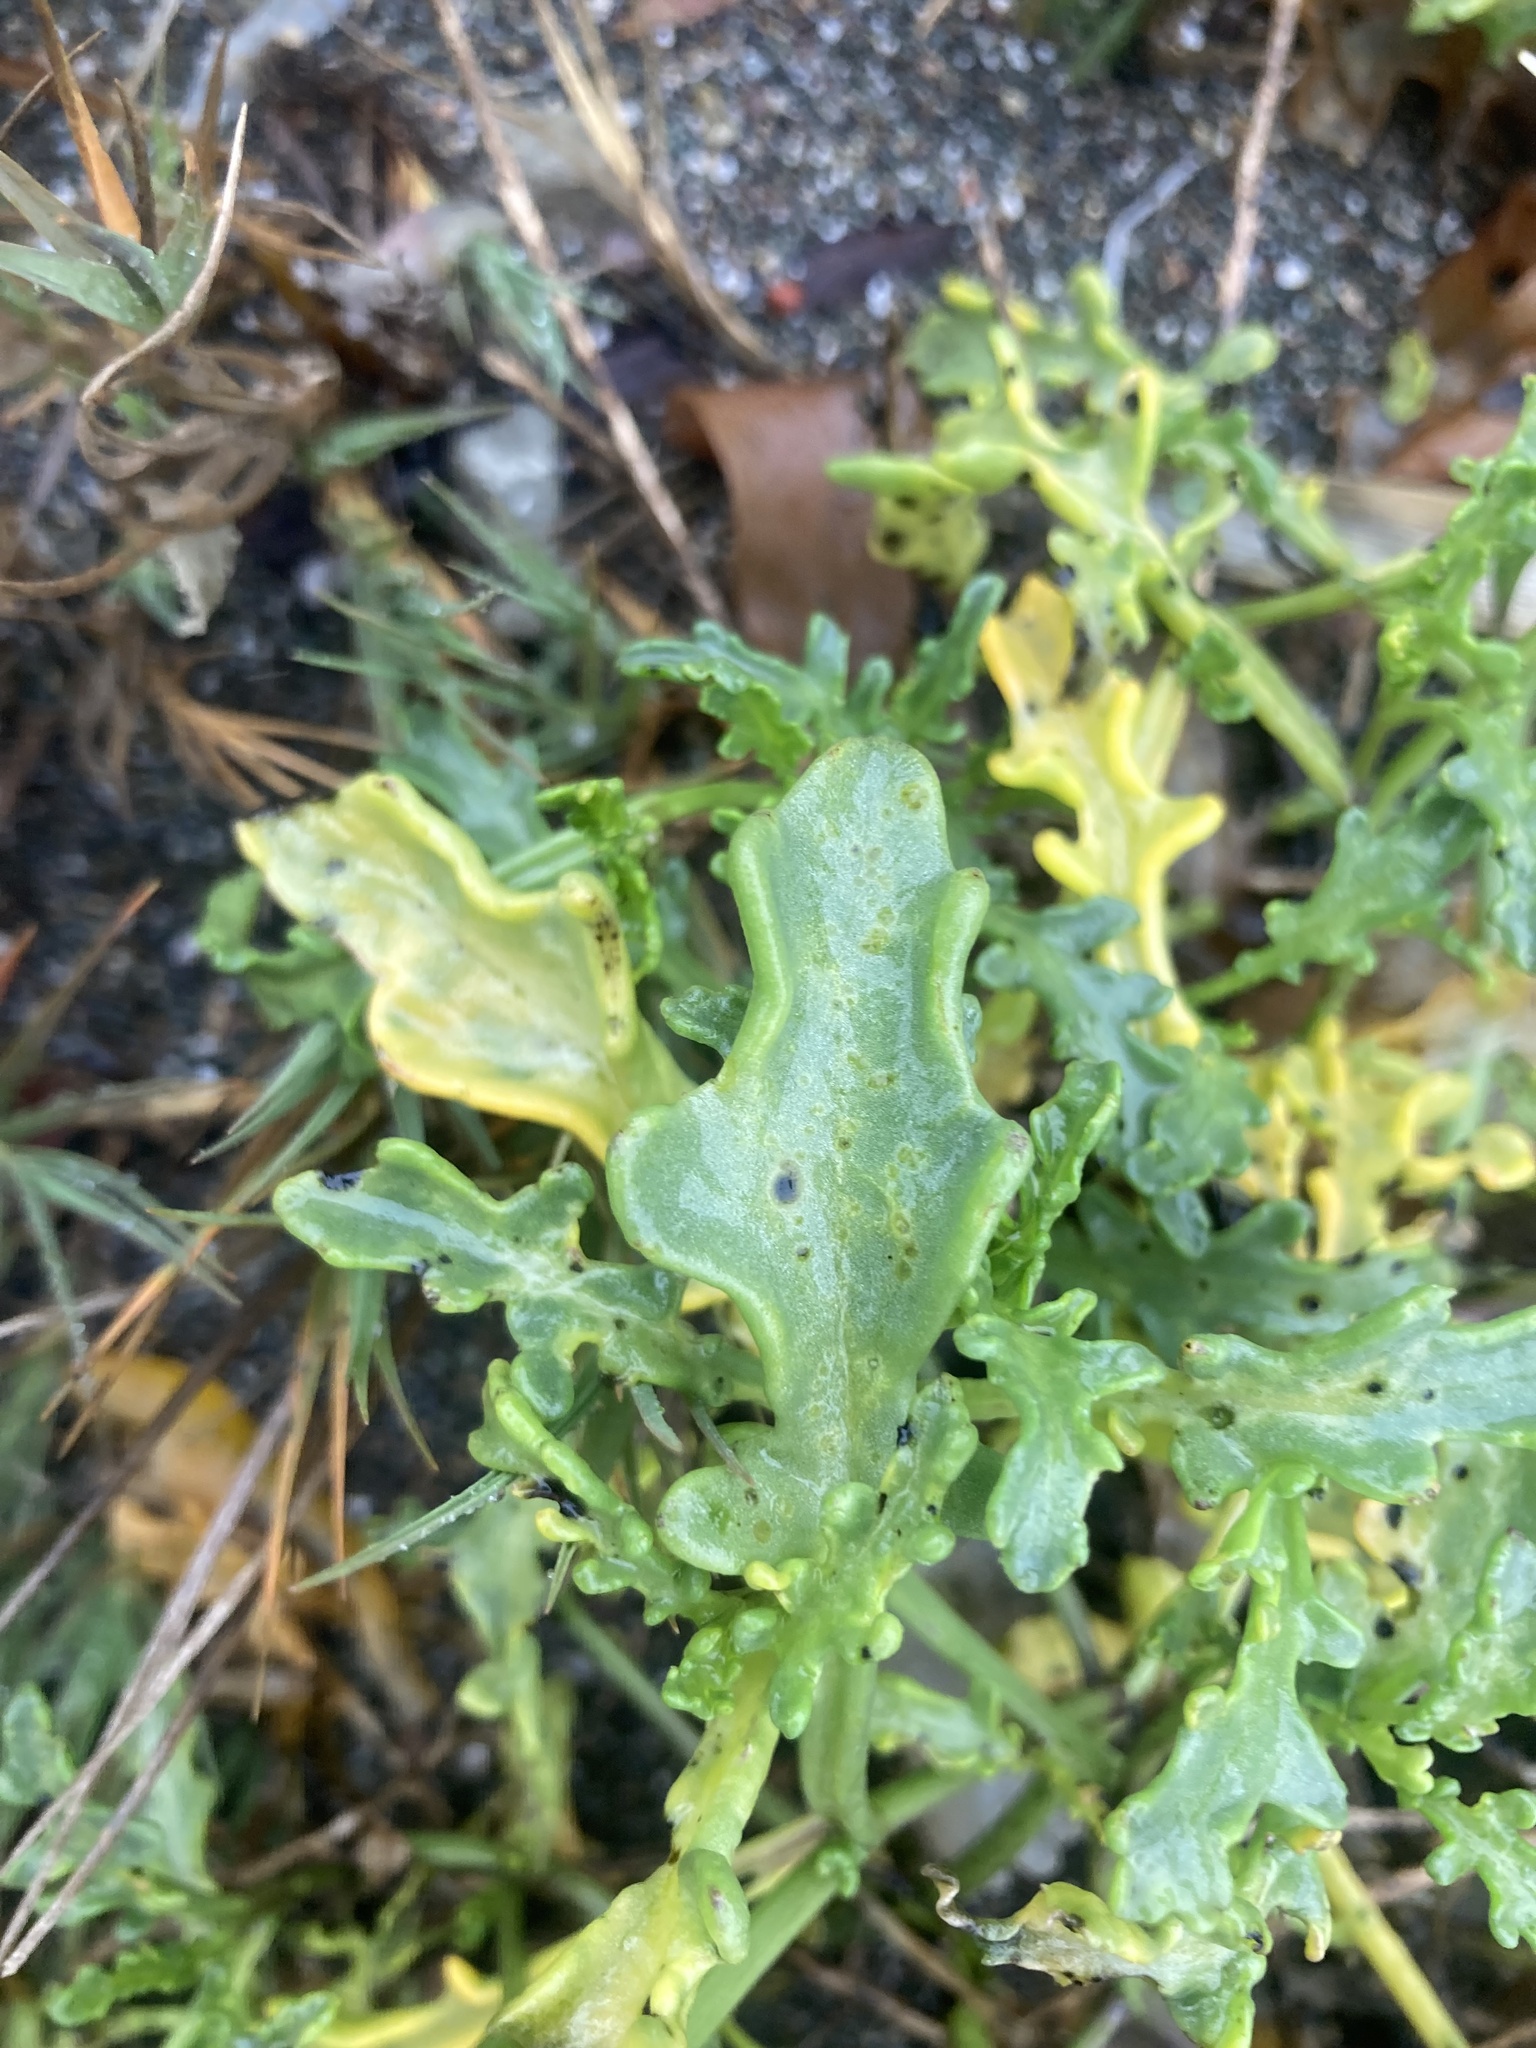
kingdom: Plantae
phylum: Tracheophyta
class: Magnoliopsida
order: Brassicales
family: Brassicaceae
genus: Cakile
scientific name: Cakile maritima
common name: Sea rocket
